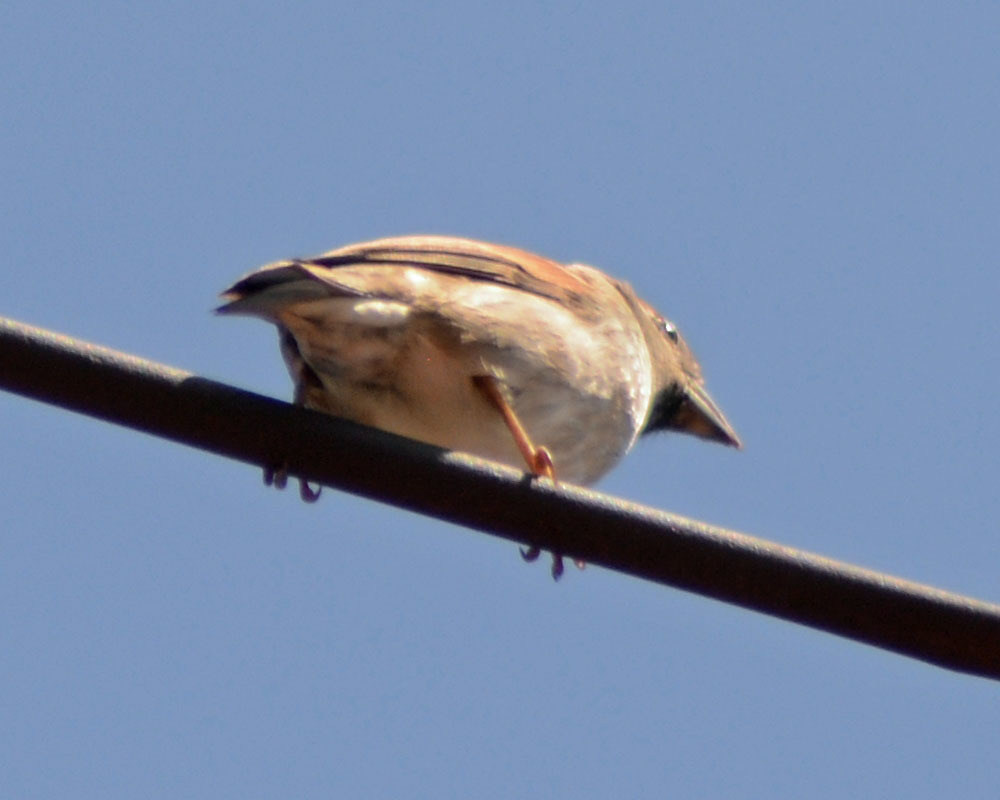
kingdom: Animalia
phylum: Chordata
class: Aves
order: Passeriformes
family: Passeridae
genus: Passer
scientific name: Passer domesticus
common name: House sparrow
